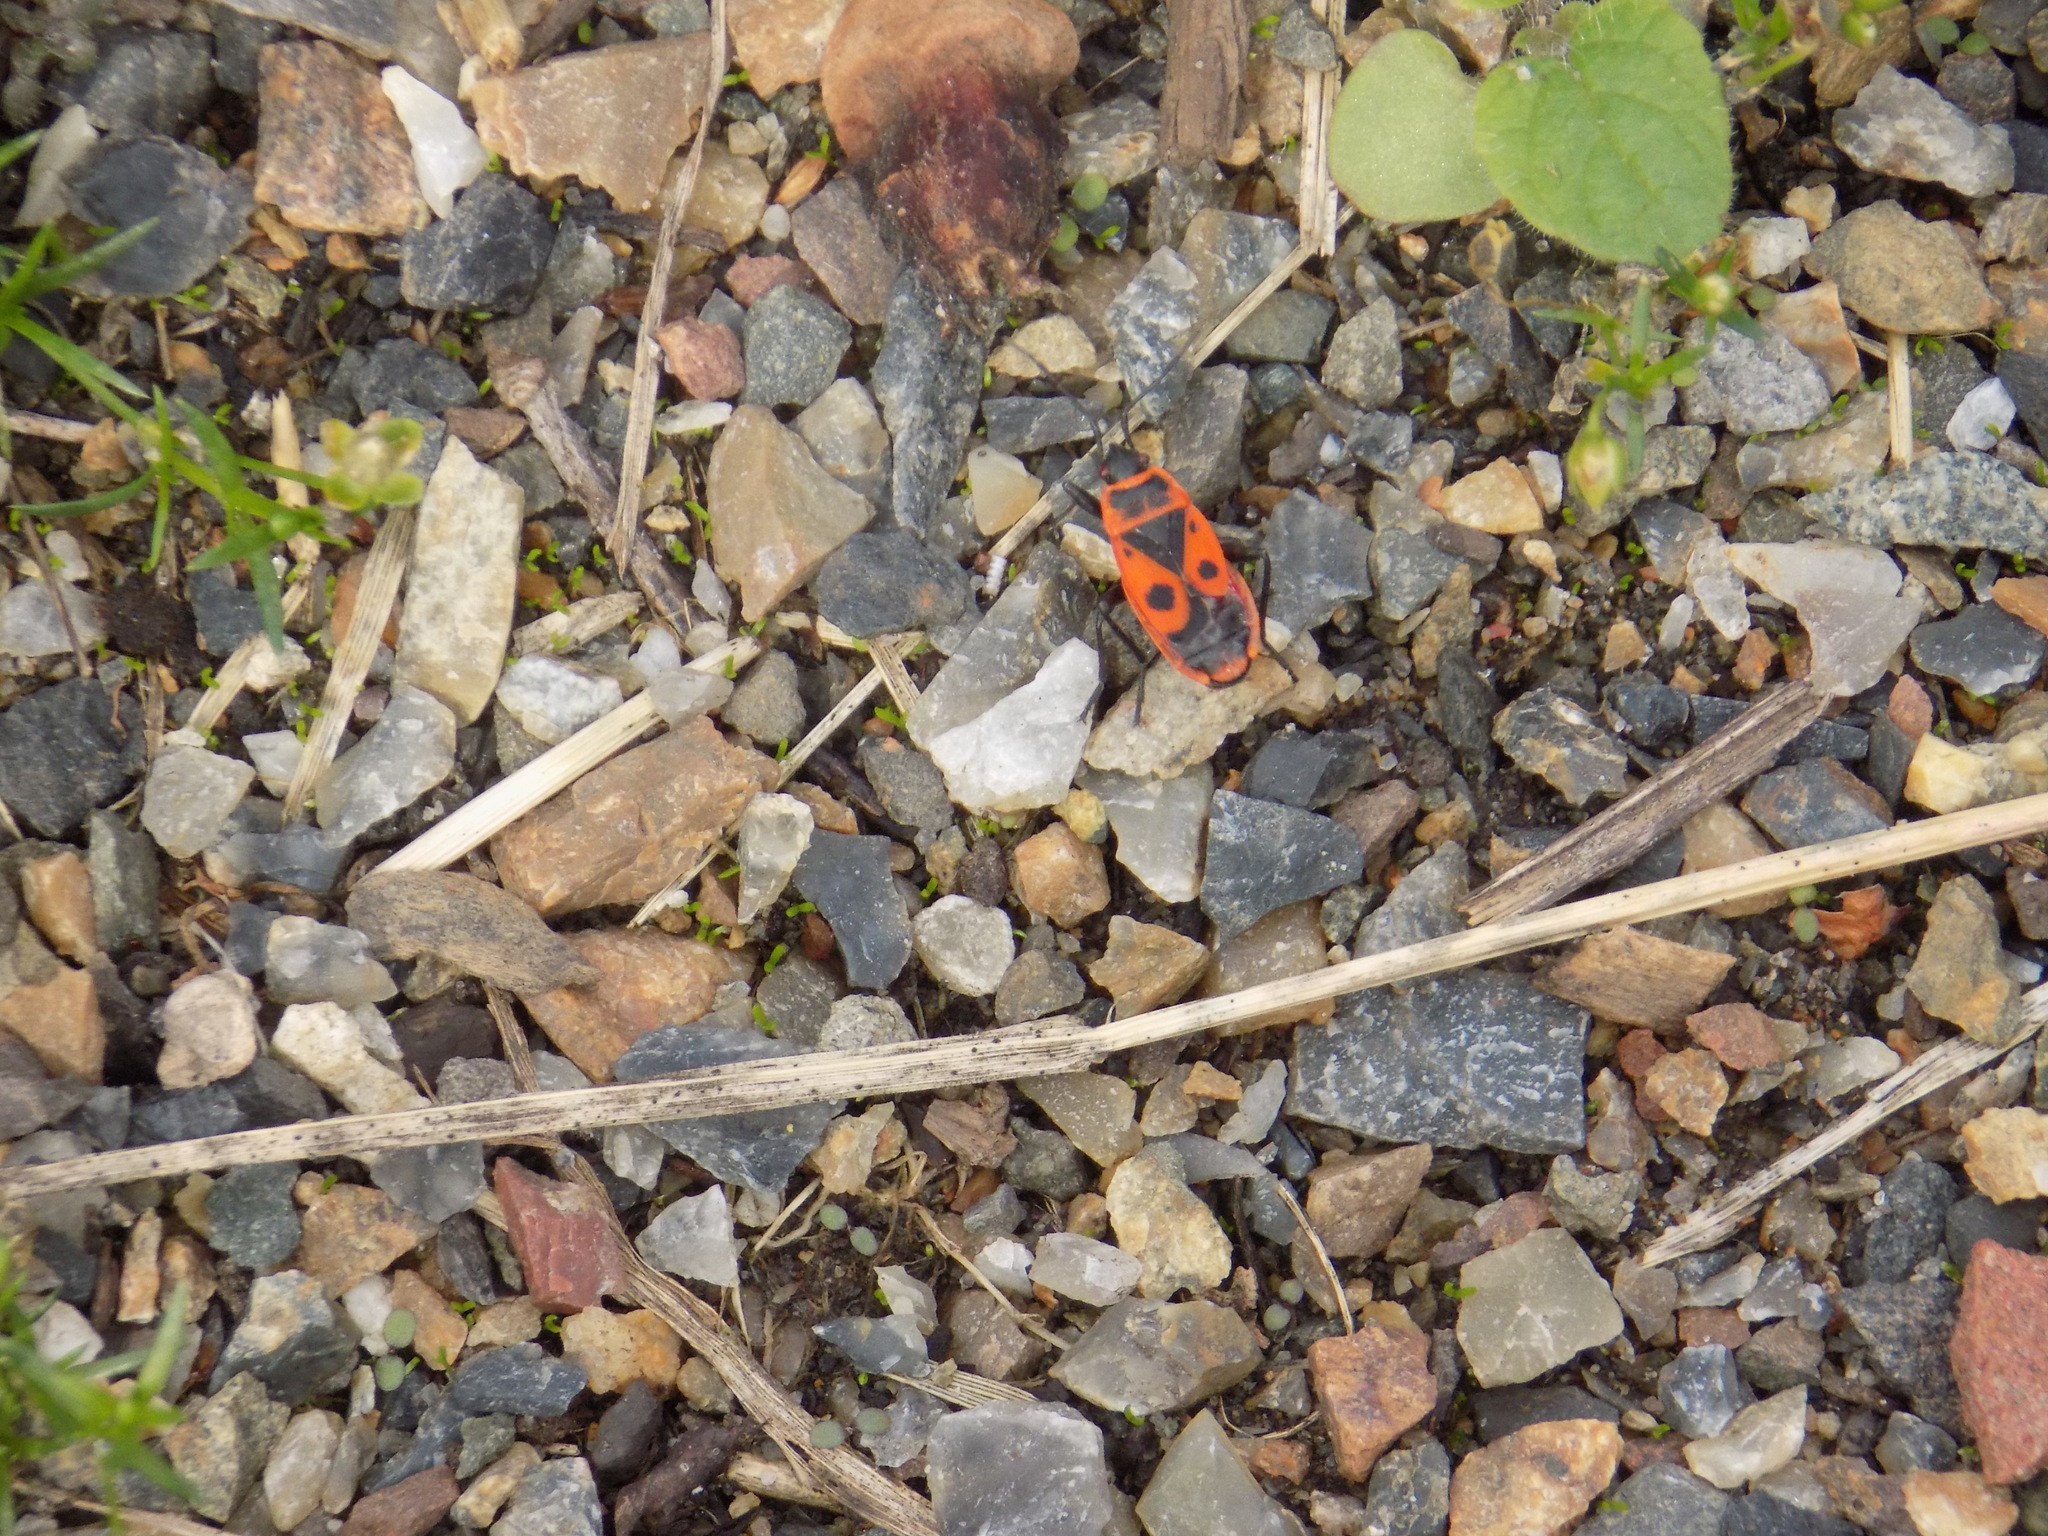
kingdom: Animalia
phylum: Arthropoda
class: Insecta
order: Hemiptera
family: Pyrrhocoridae
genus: Pyrrhocoris
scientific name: Pyrrhocoris apterus
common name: Firebug
